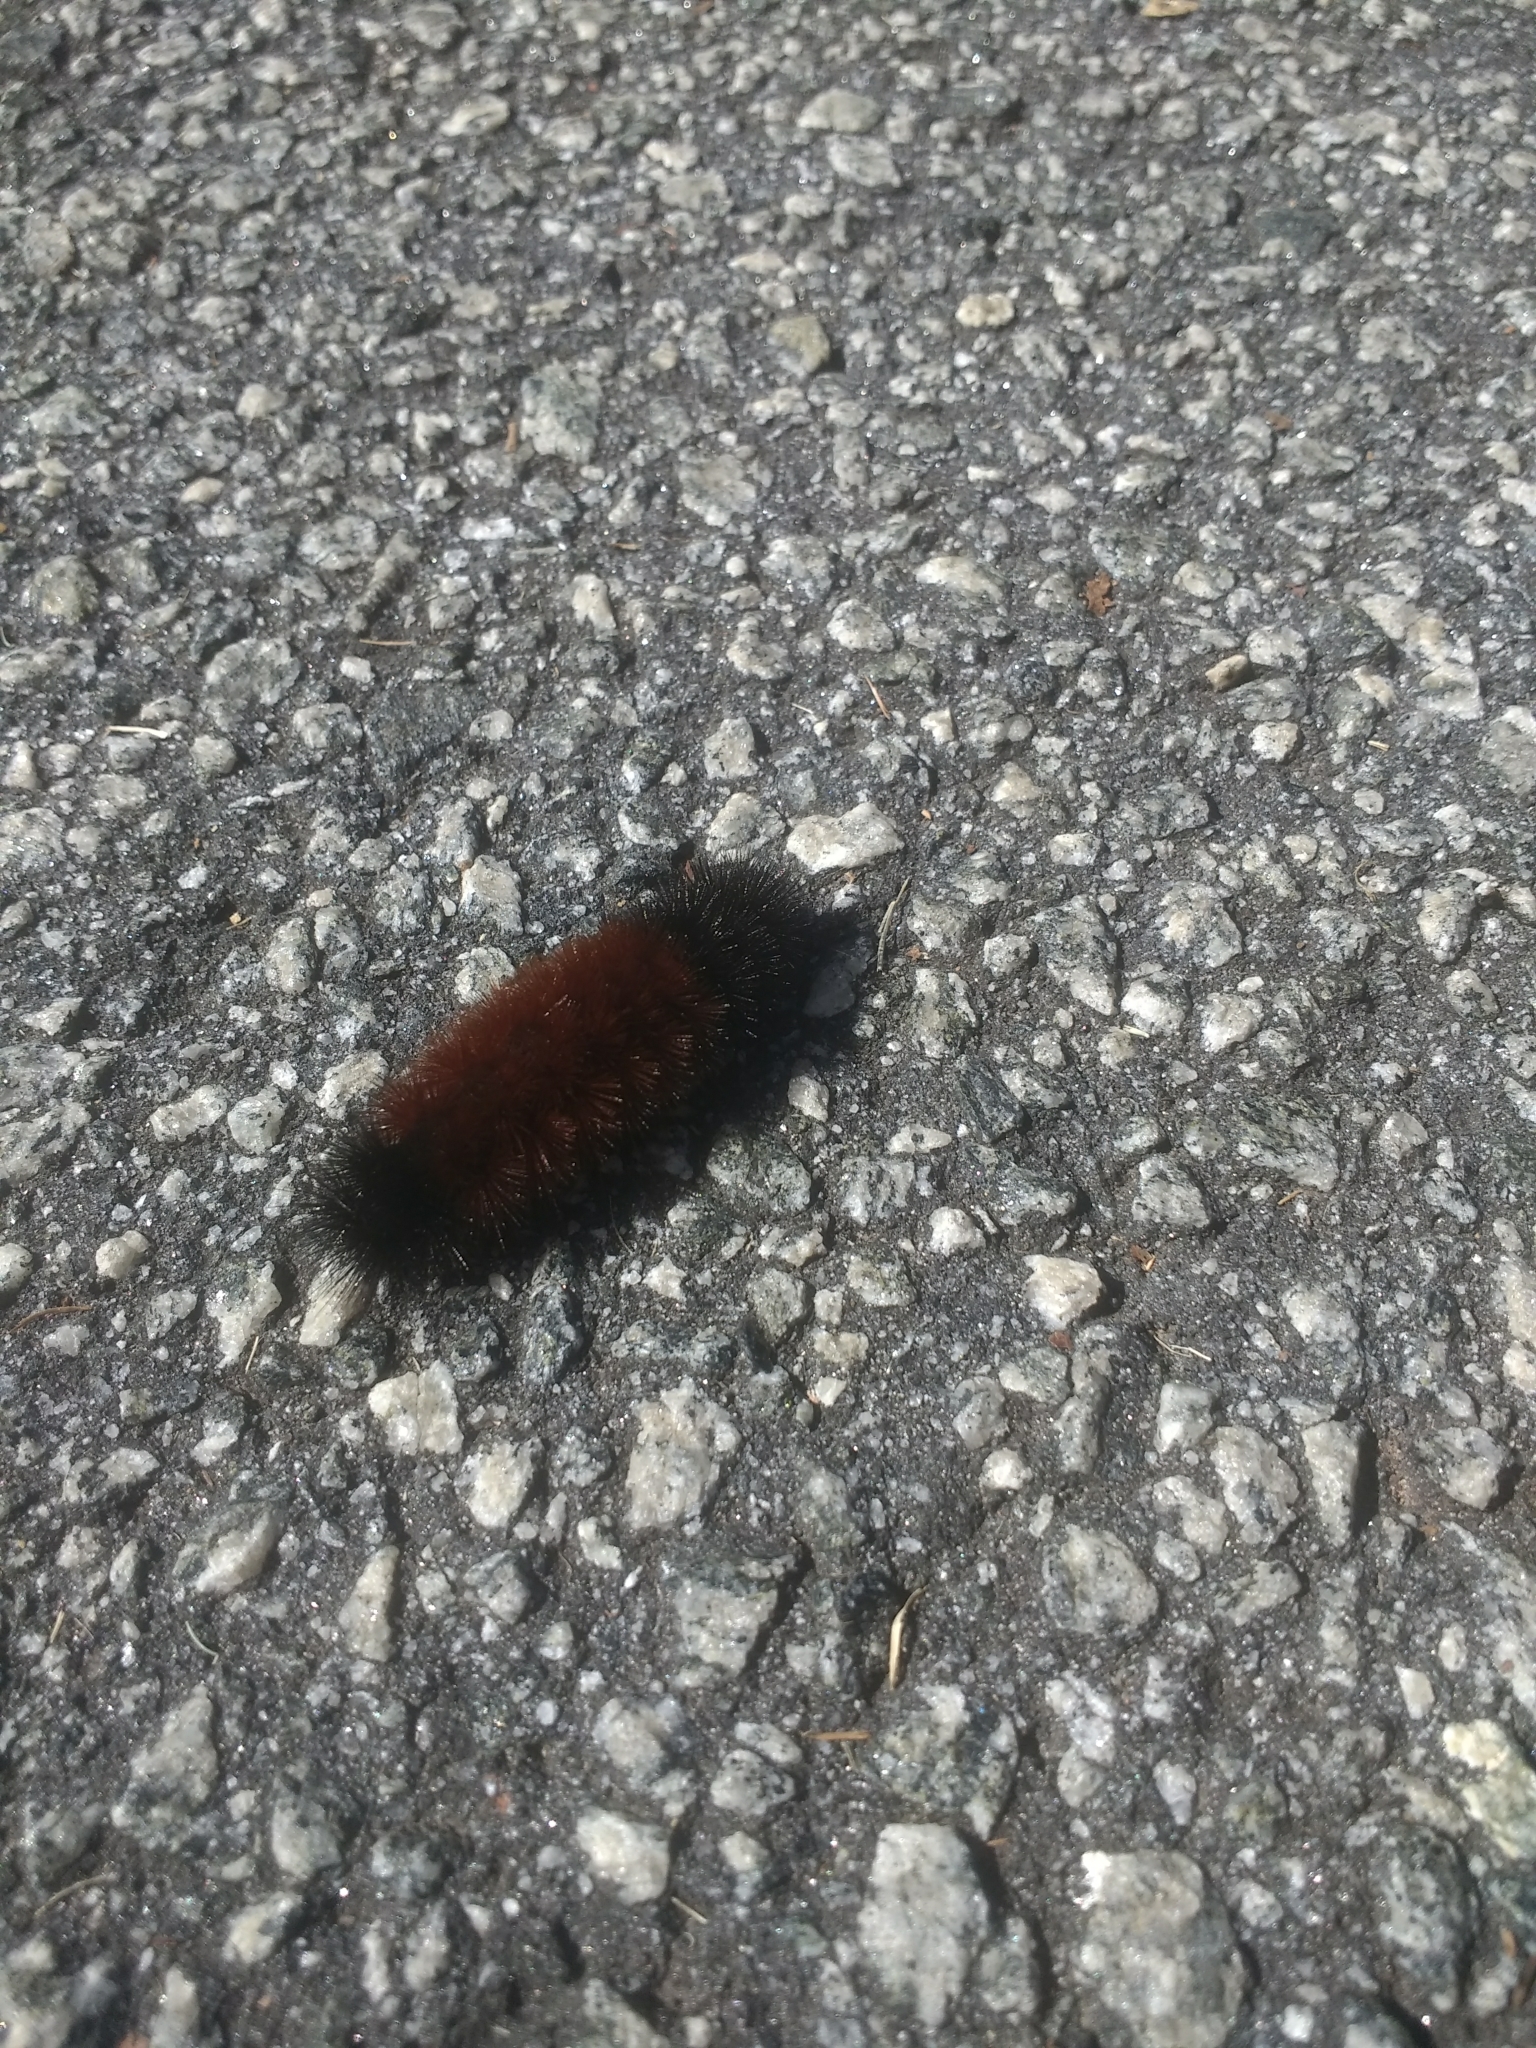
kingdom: Animalia
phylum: Arthropoda
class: Insecta
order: Lepidoptera
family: Erebidae
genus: Pyrrharctia
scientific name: Pyrrharctia isabella
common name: Isabella tiger moth
